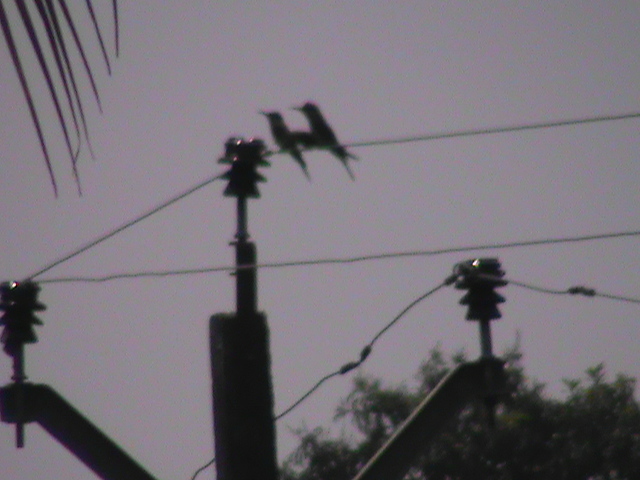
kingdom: Animalia
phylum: Chordata
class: Aves
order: Coraciiformes
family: Meropidae
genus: Merops
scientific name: Merops philippinus
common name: Blue-tailed bee-eater
